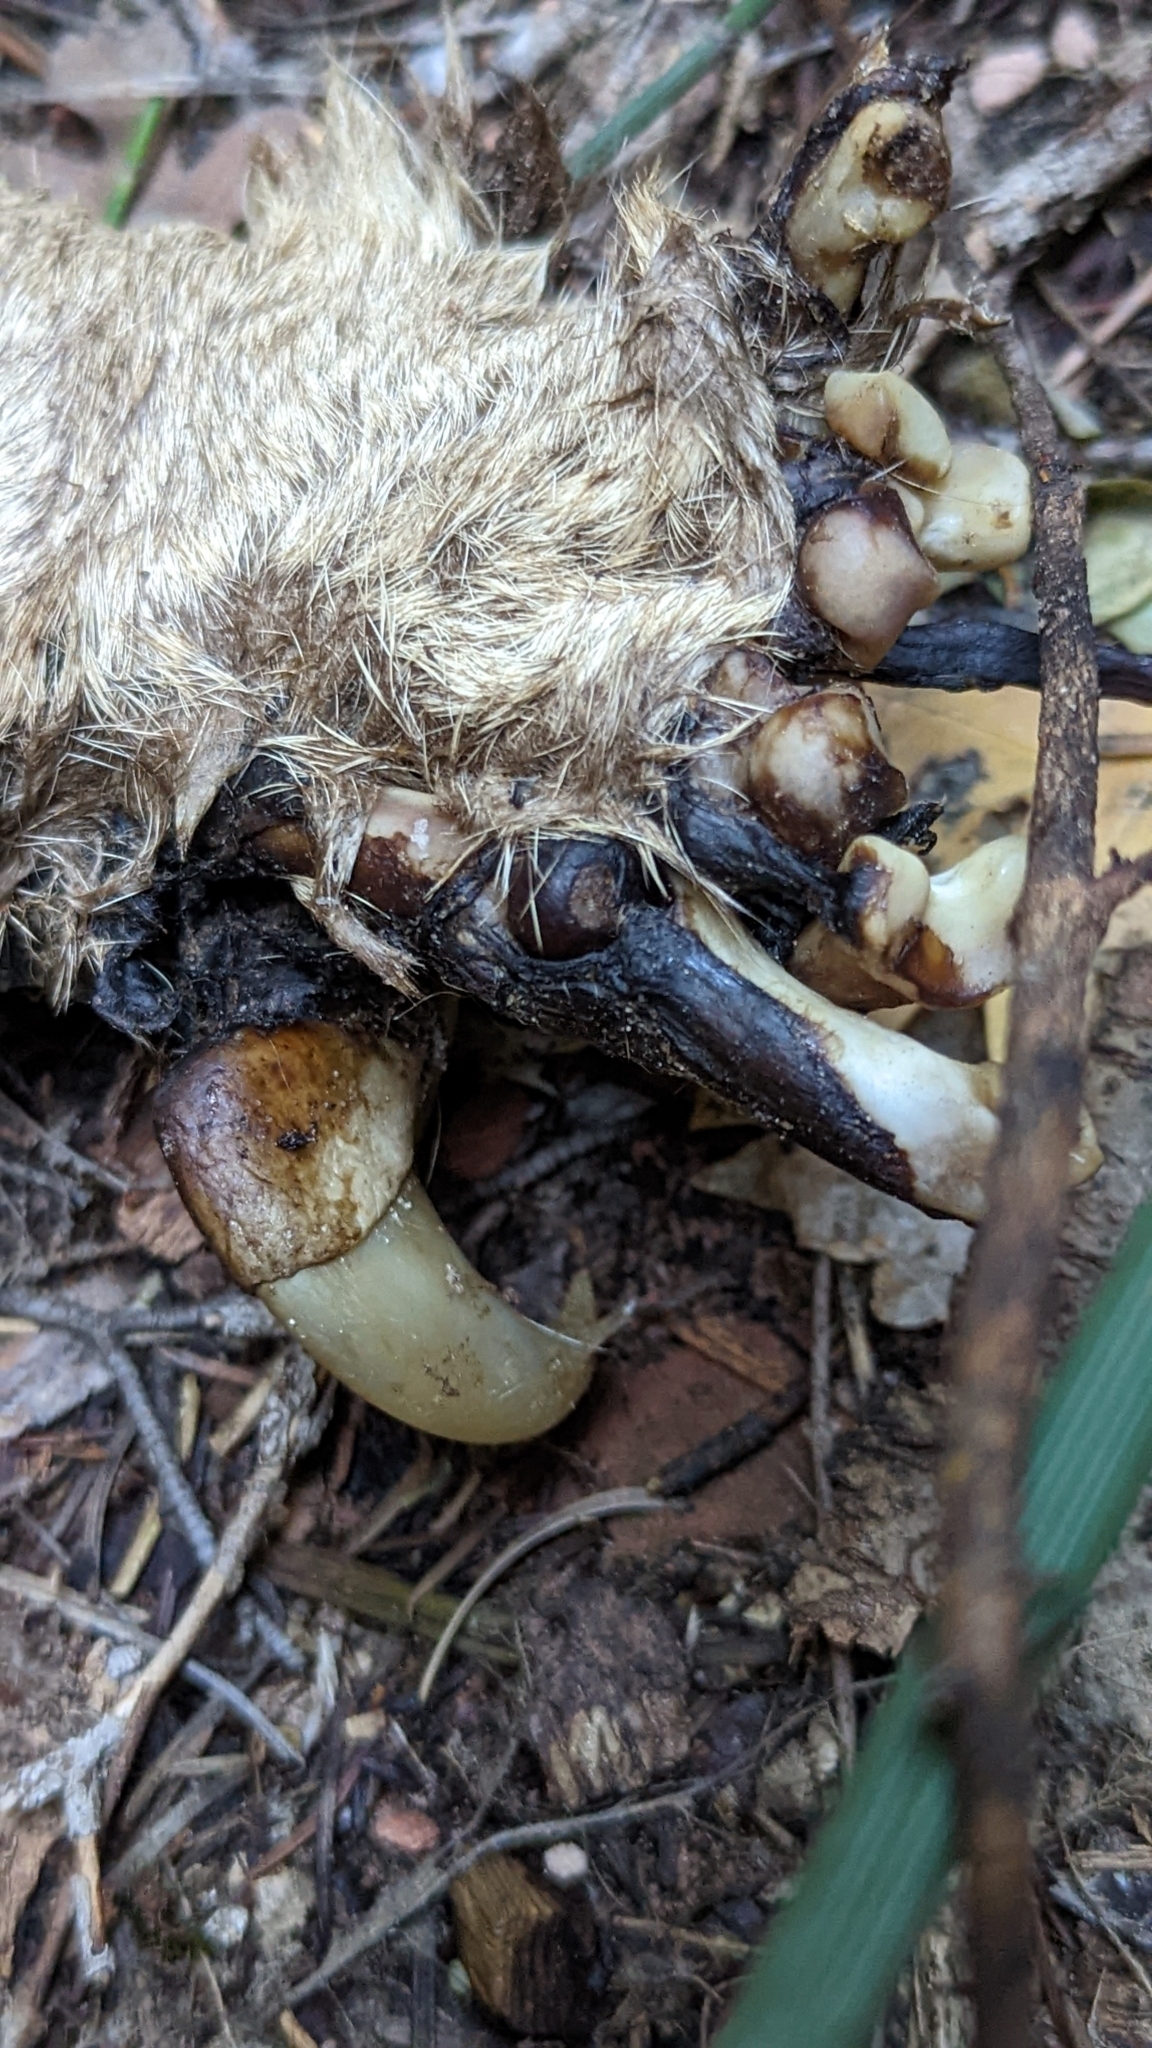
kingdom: Animalia
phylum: Chordata
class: Mammalia
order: Carnivora
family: Felidae
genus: Puma
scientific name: Puma concolor
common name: Puma
